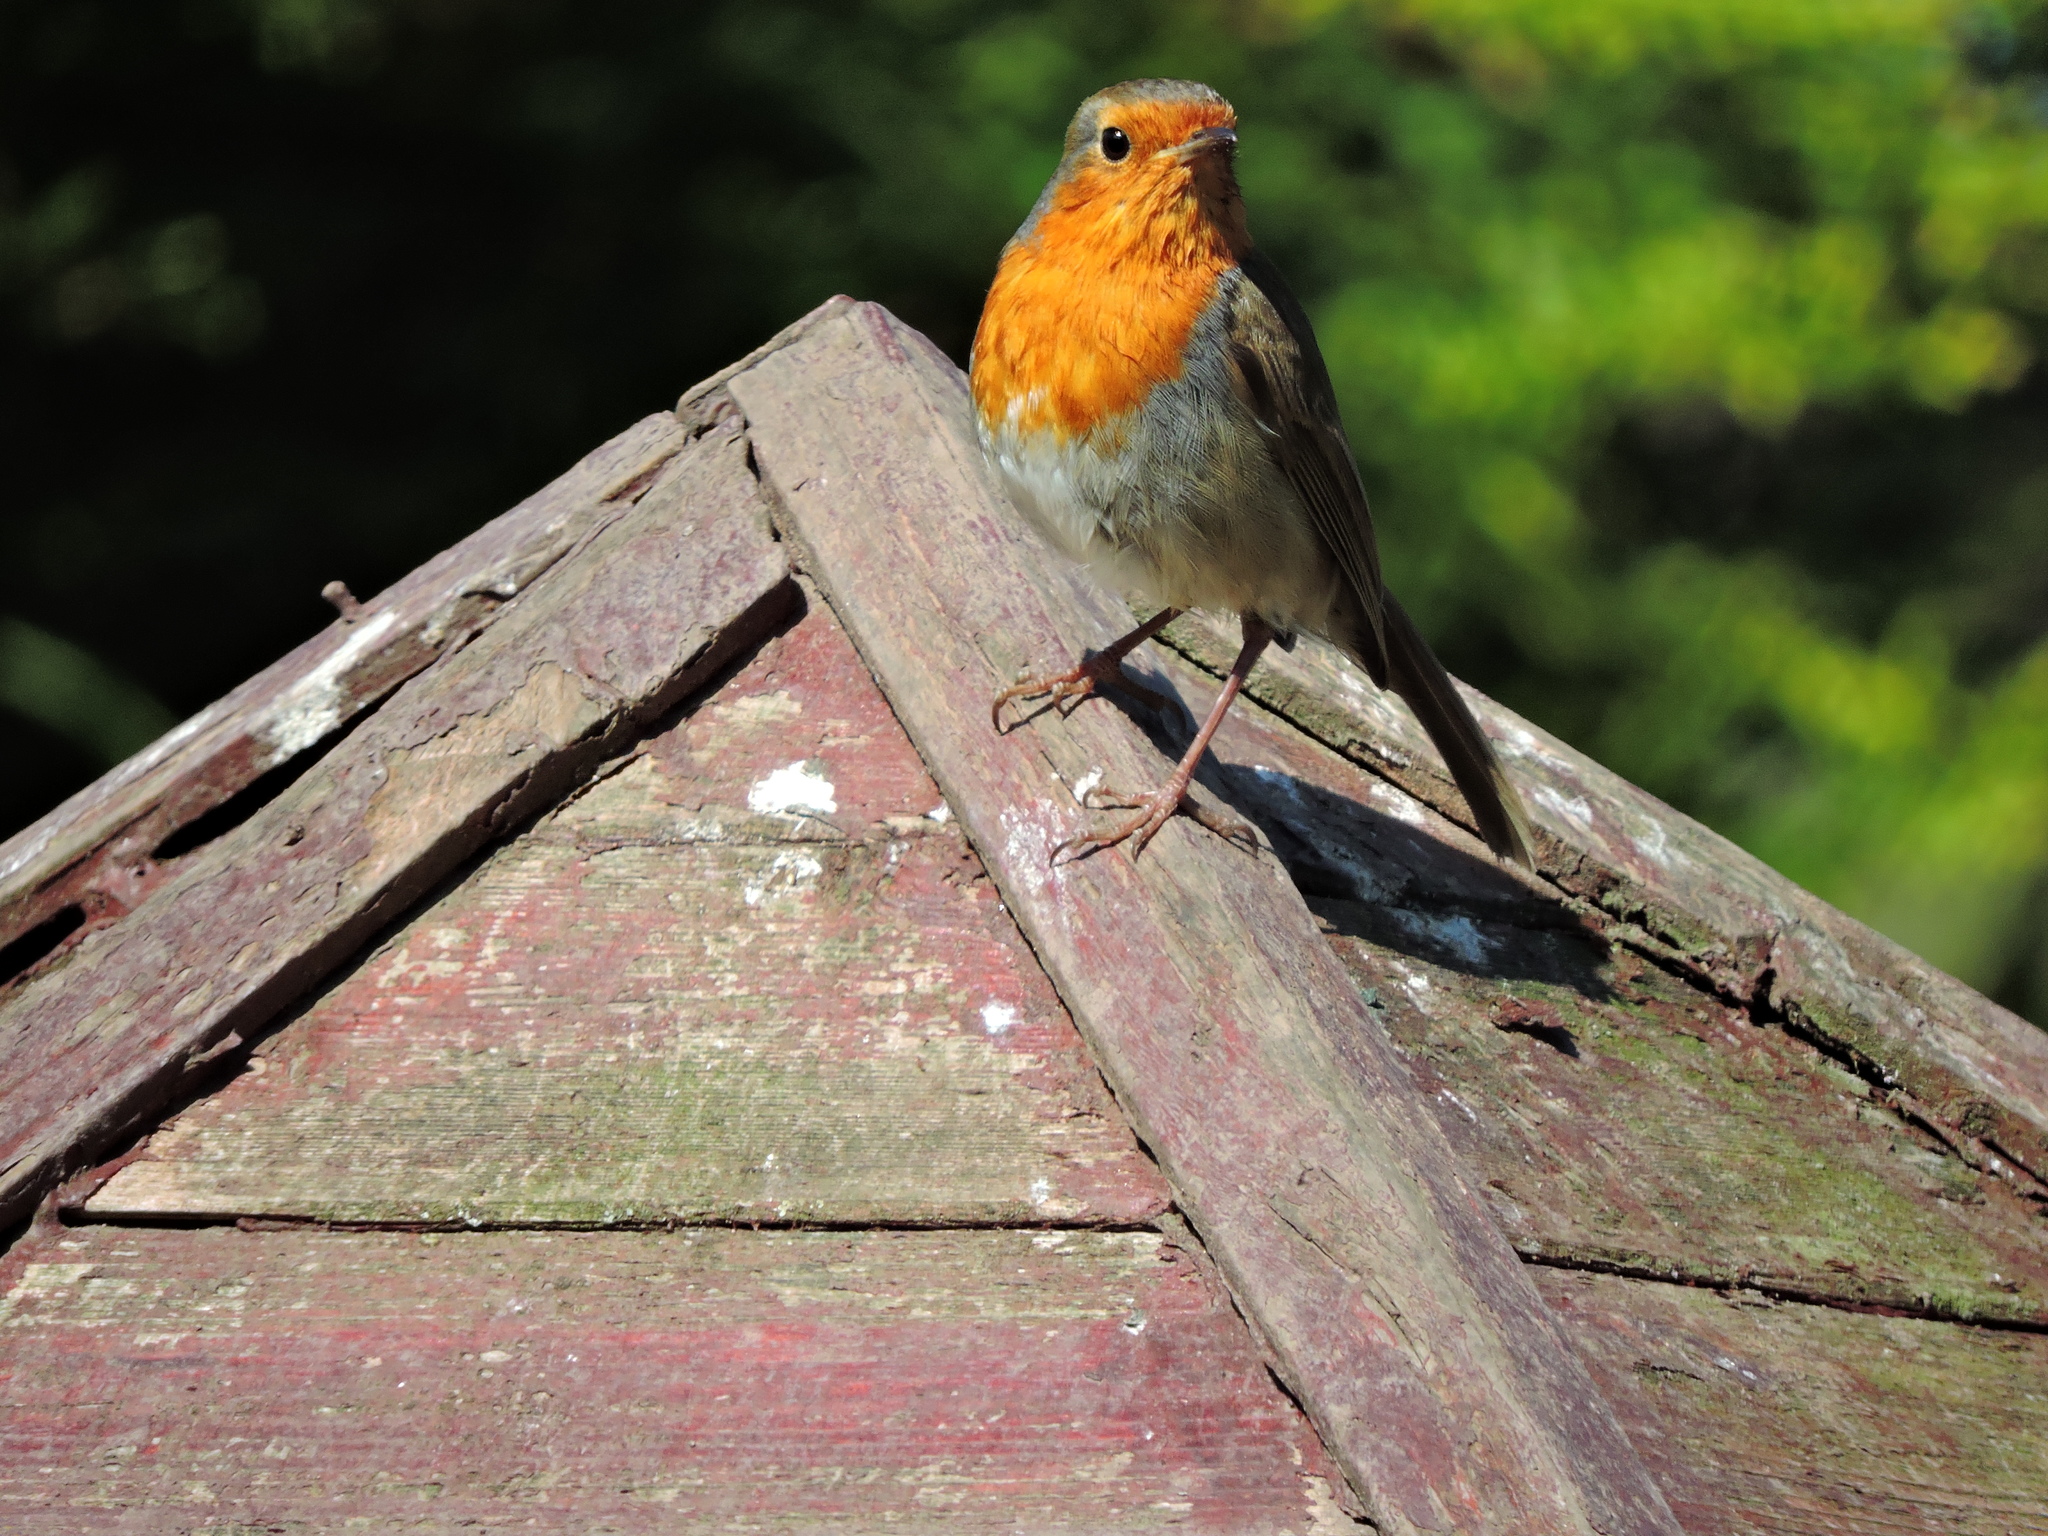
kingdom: Animalia
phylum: Chordata
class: Aves
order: Passeriformes
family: Muscicapidae
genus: Erithacus
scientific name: Erithacus rubecula
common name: European robin
